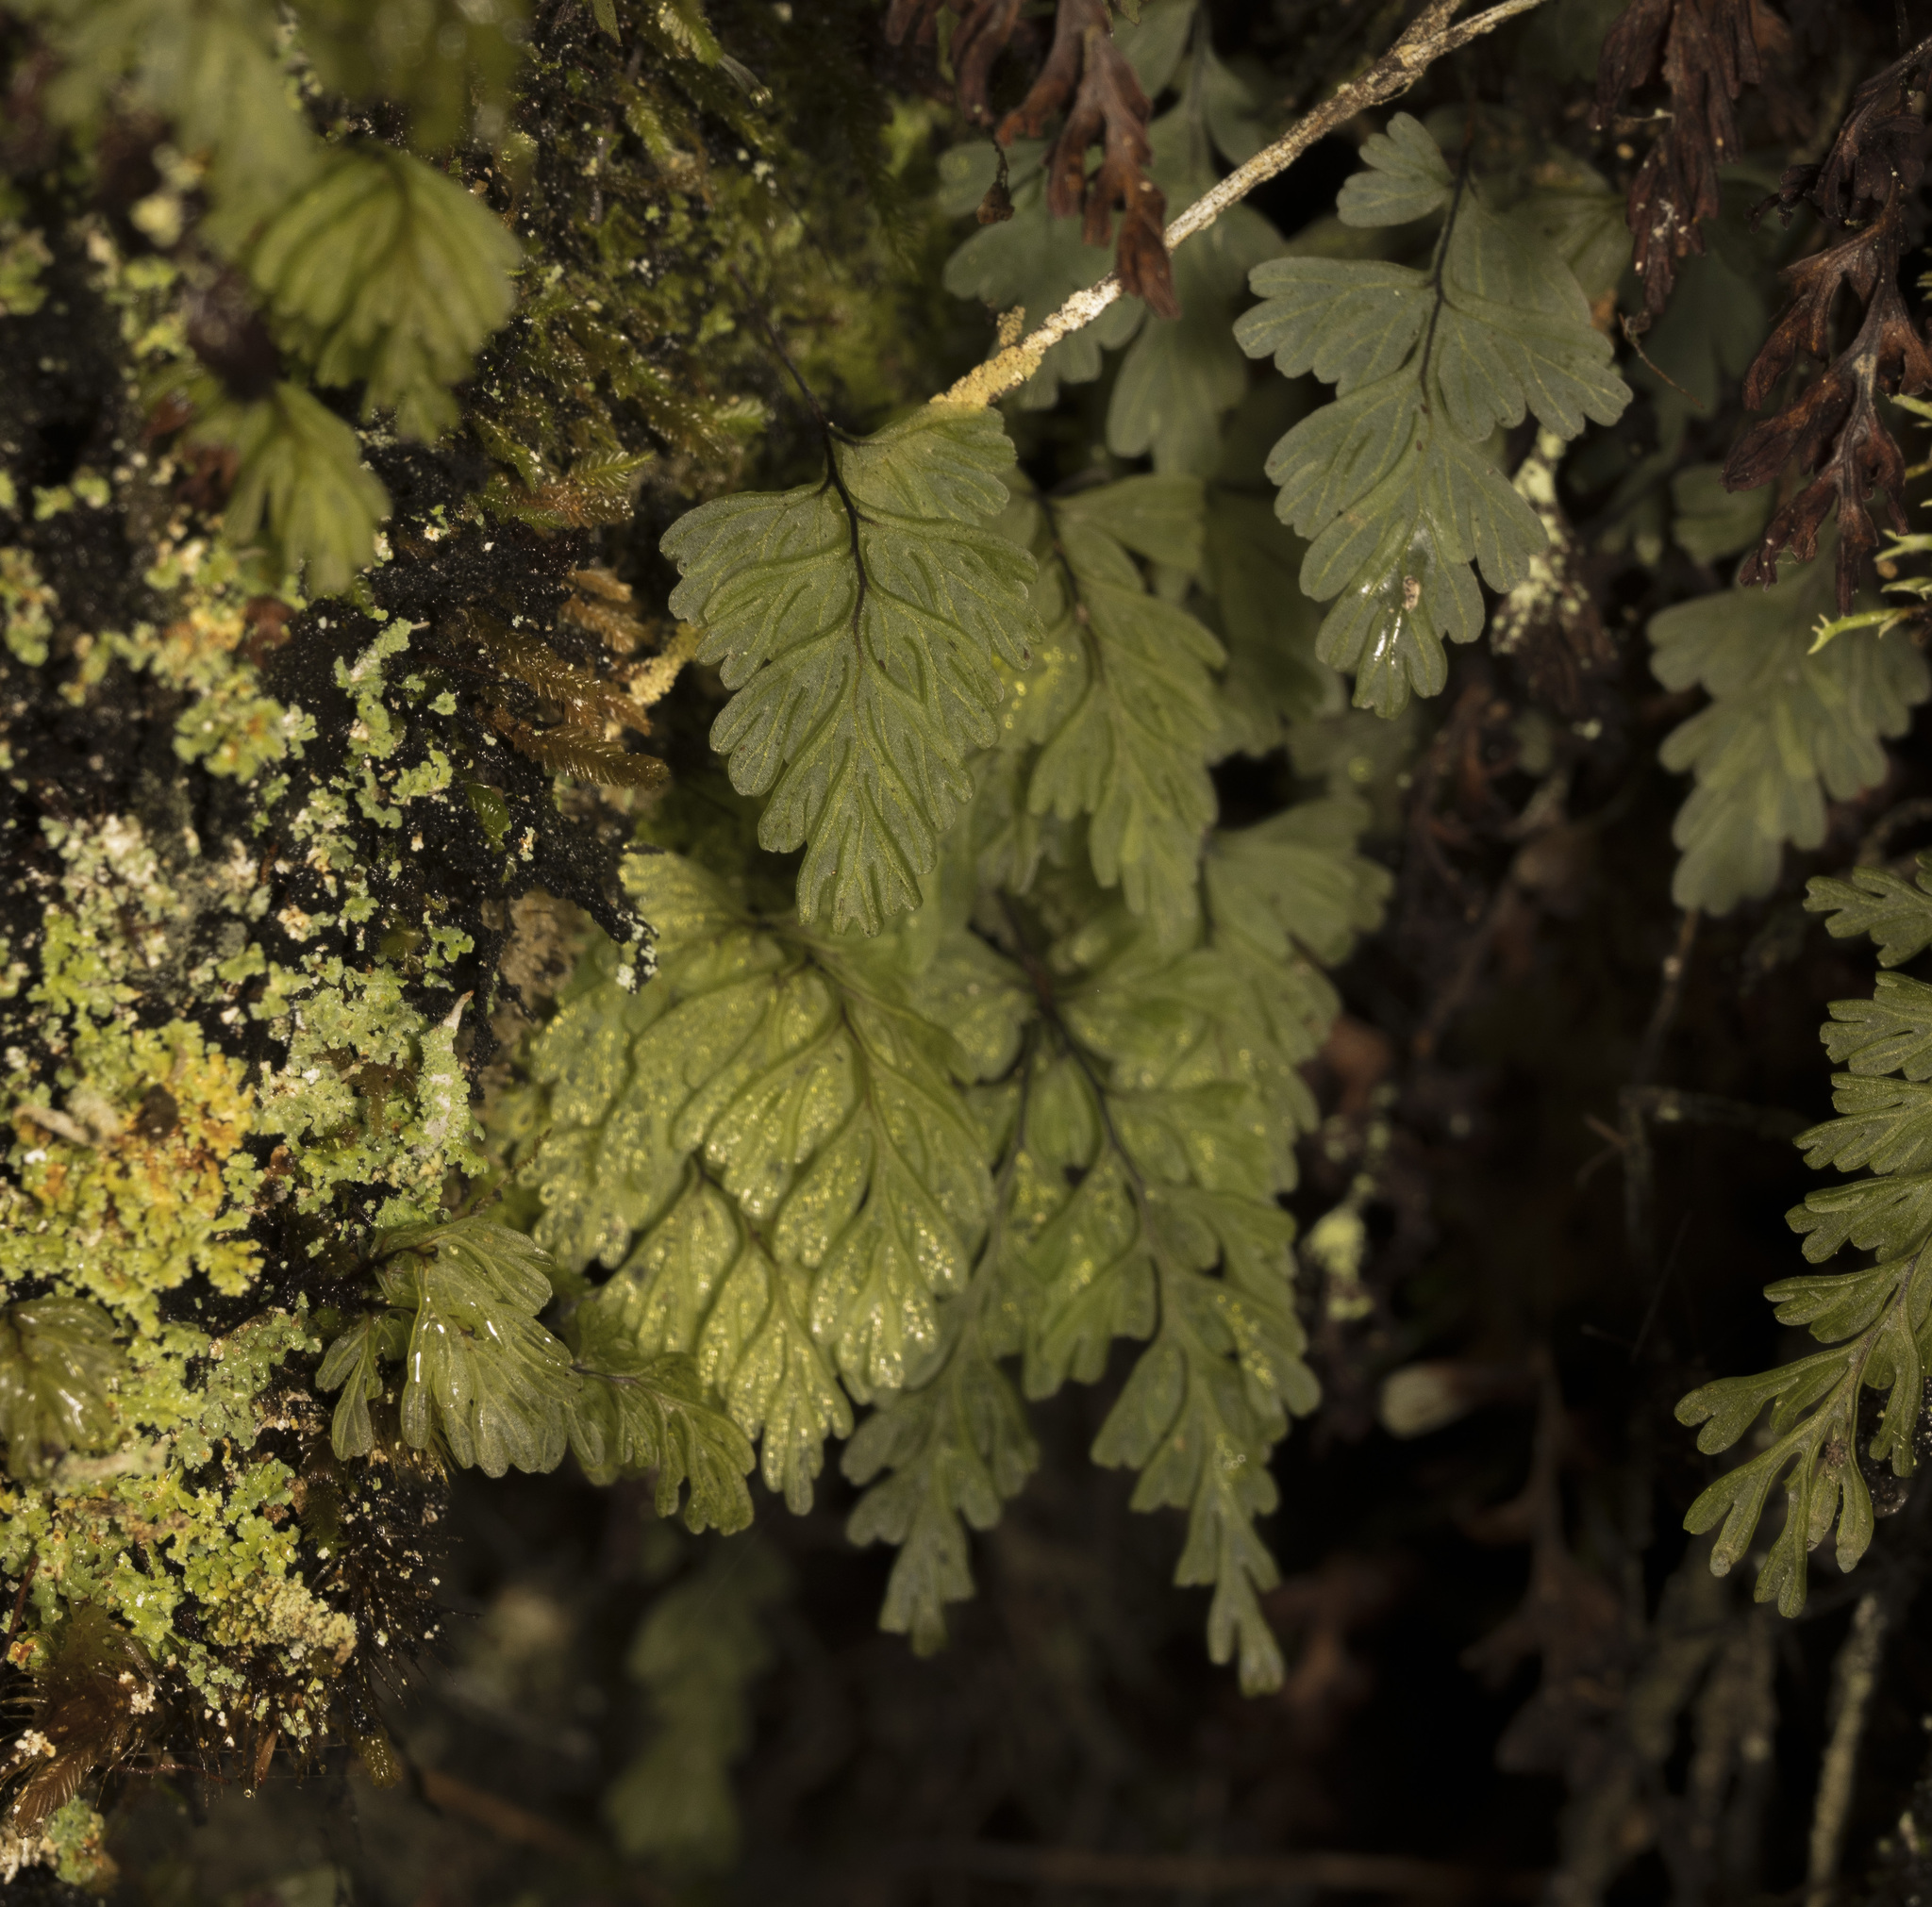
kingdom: Plantae
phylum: Tracheophyta
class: Polypodiopsida
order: Hymenophyllales
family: Hymenophyllaceae
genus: Hymenophyllum
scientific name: Hymenophyllum cuneatum
